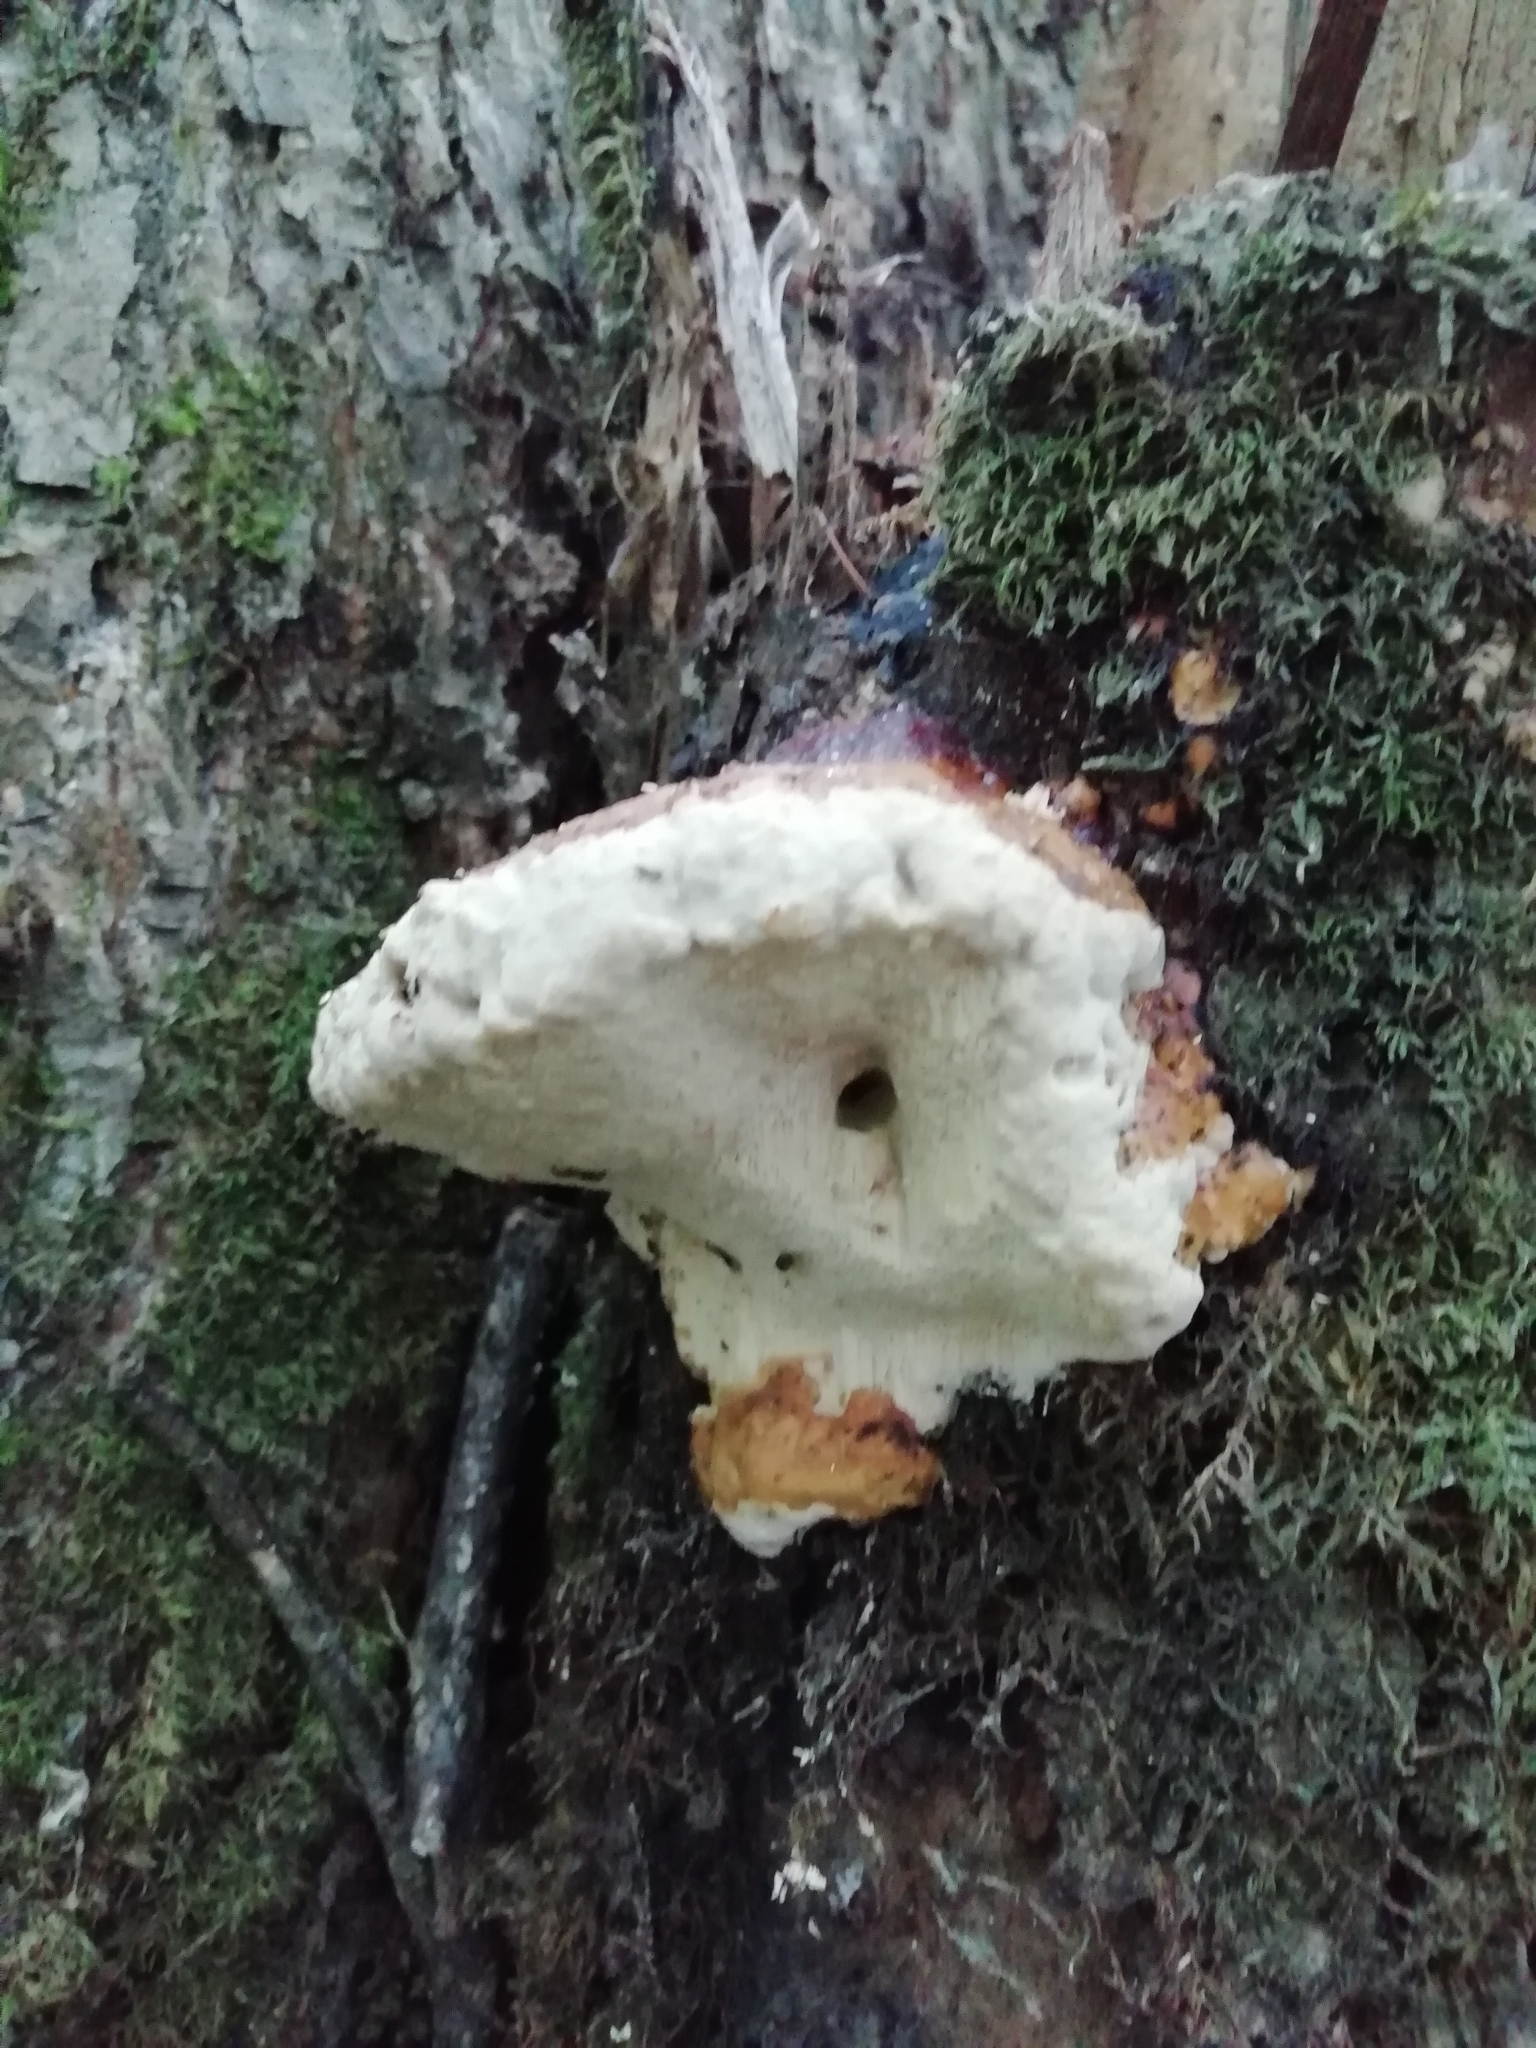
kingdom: Fungi
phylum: Basidiomycota
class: Agaricomycetes
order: Polyporales
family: Fomitopsidaceae
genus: Fomitopsis
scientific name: Fomitopsis pinicola
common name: Red-belted bracket
